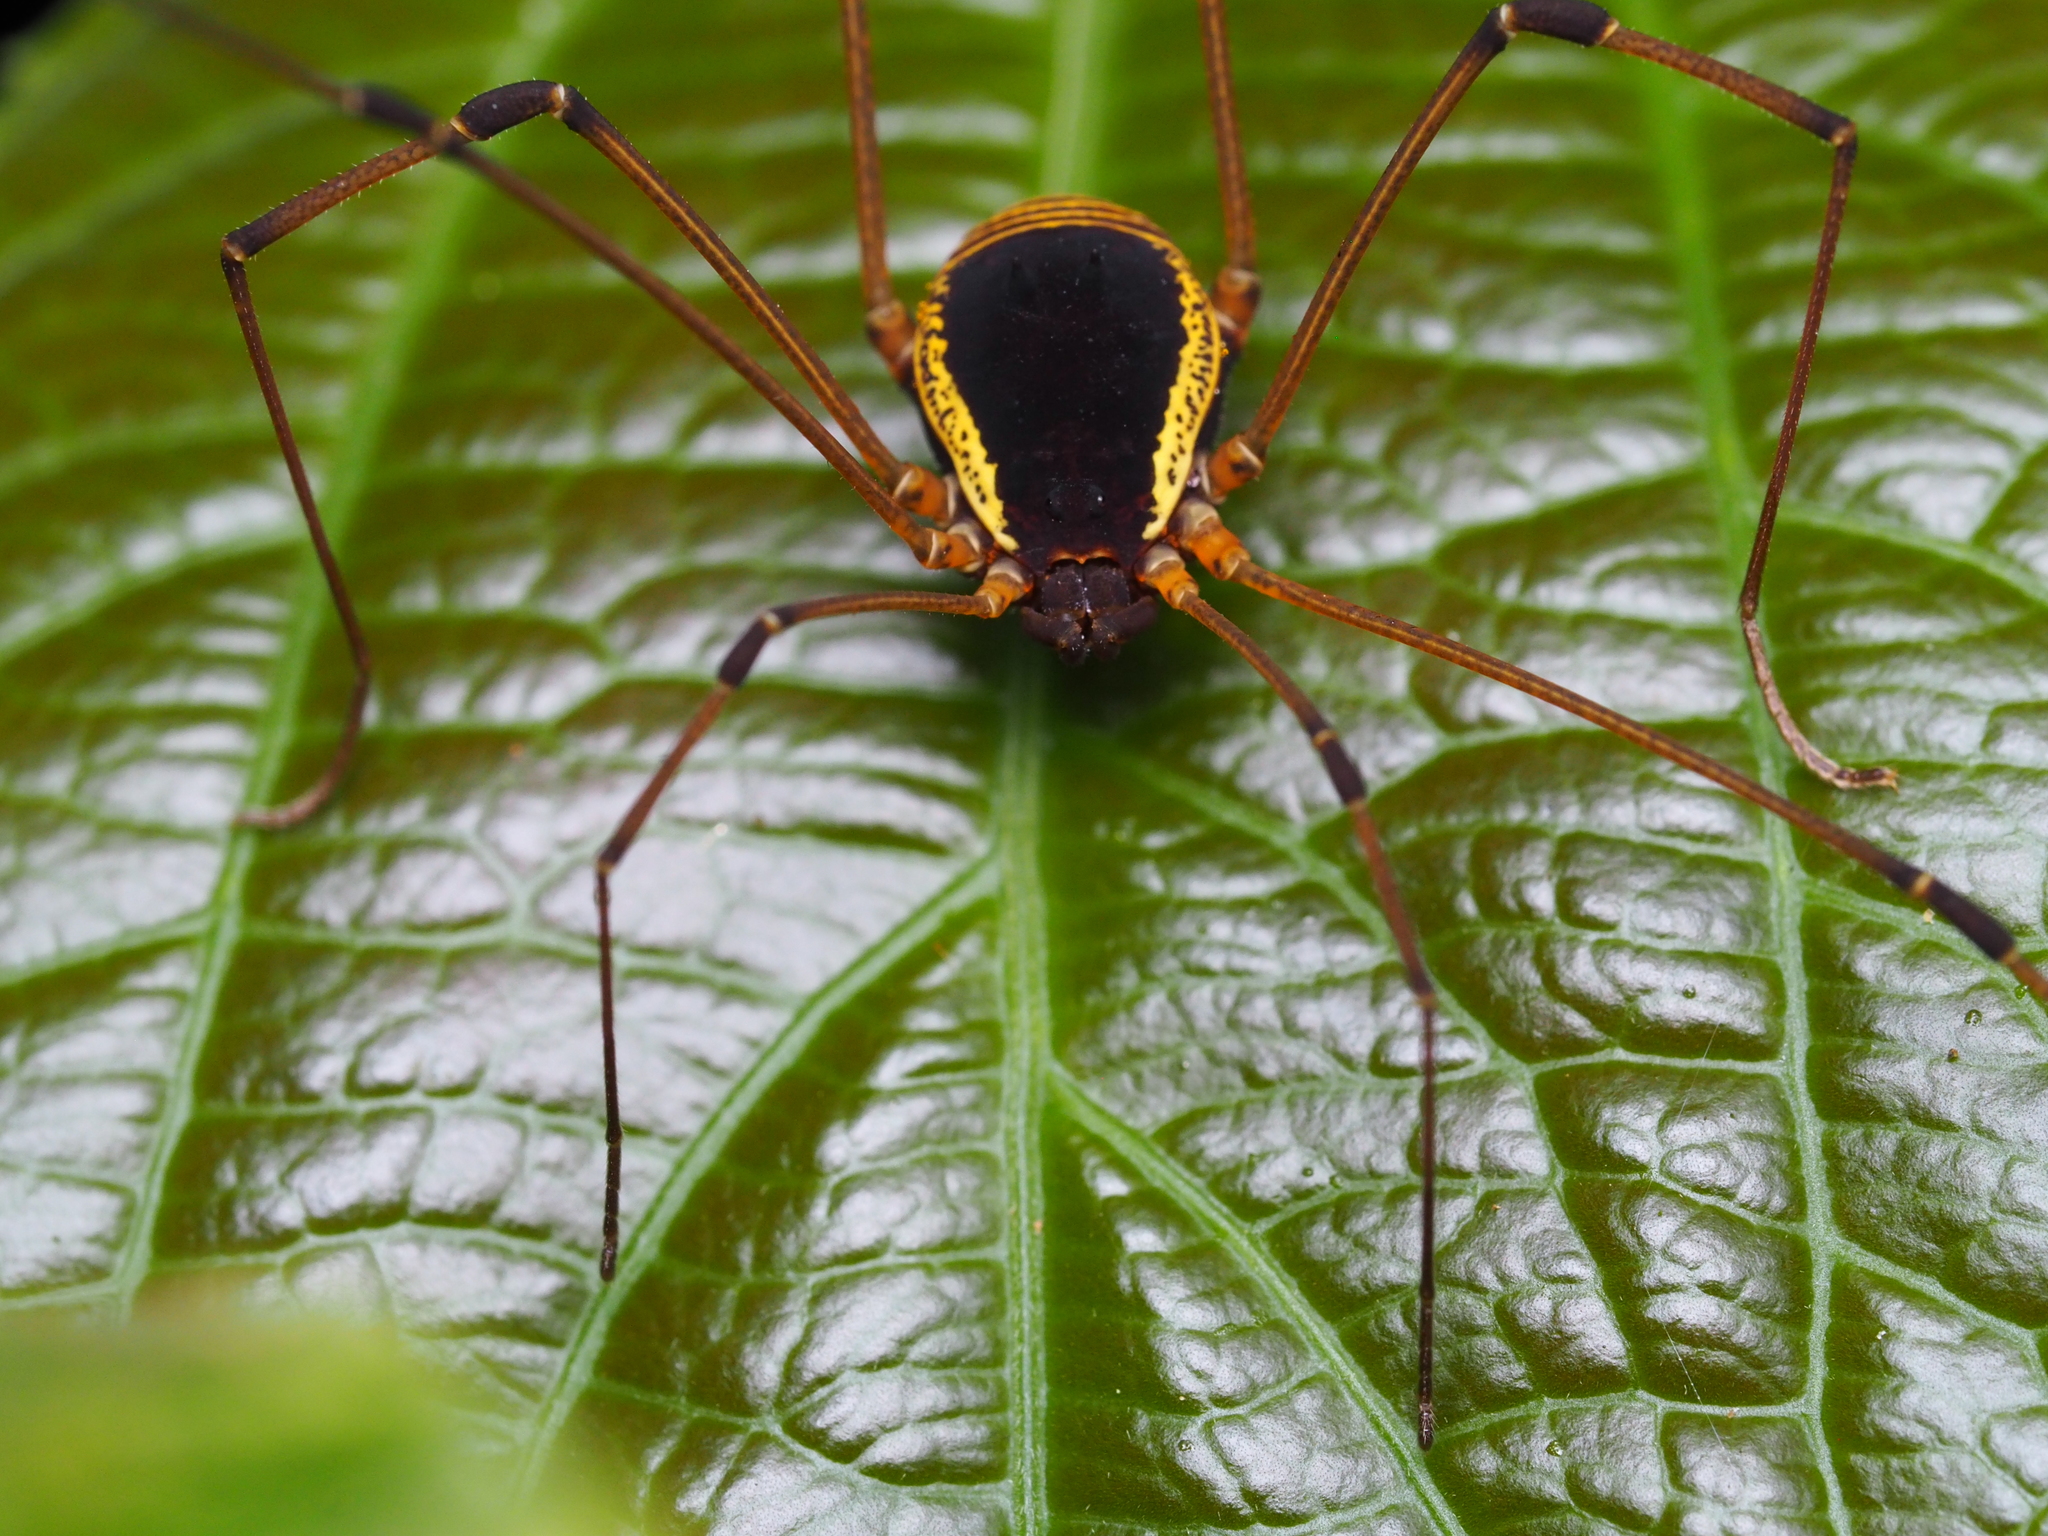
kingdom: Animalia
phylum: Arthropoda
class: Arachnida
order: Opiliones
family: Cosmetidae
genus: Cynorta
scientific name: Cynorta marginalis
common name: Harvestmen
